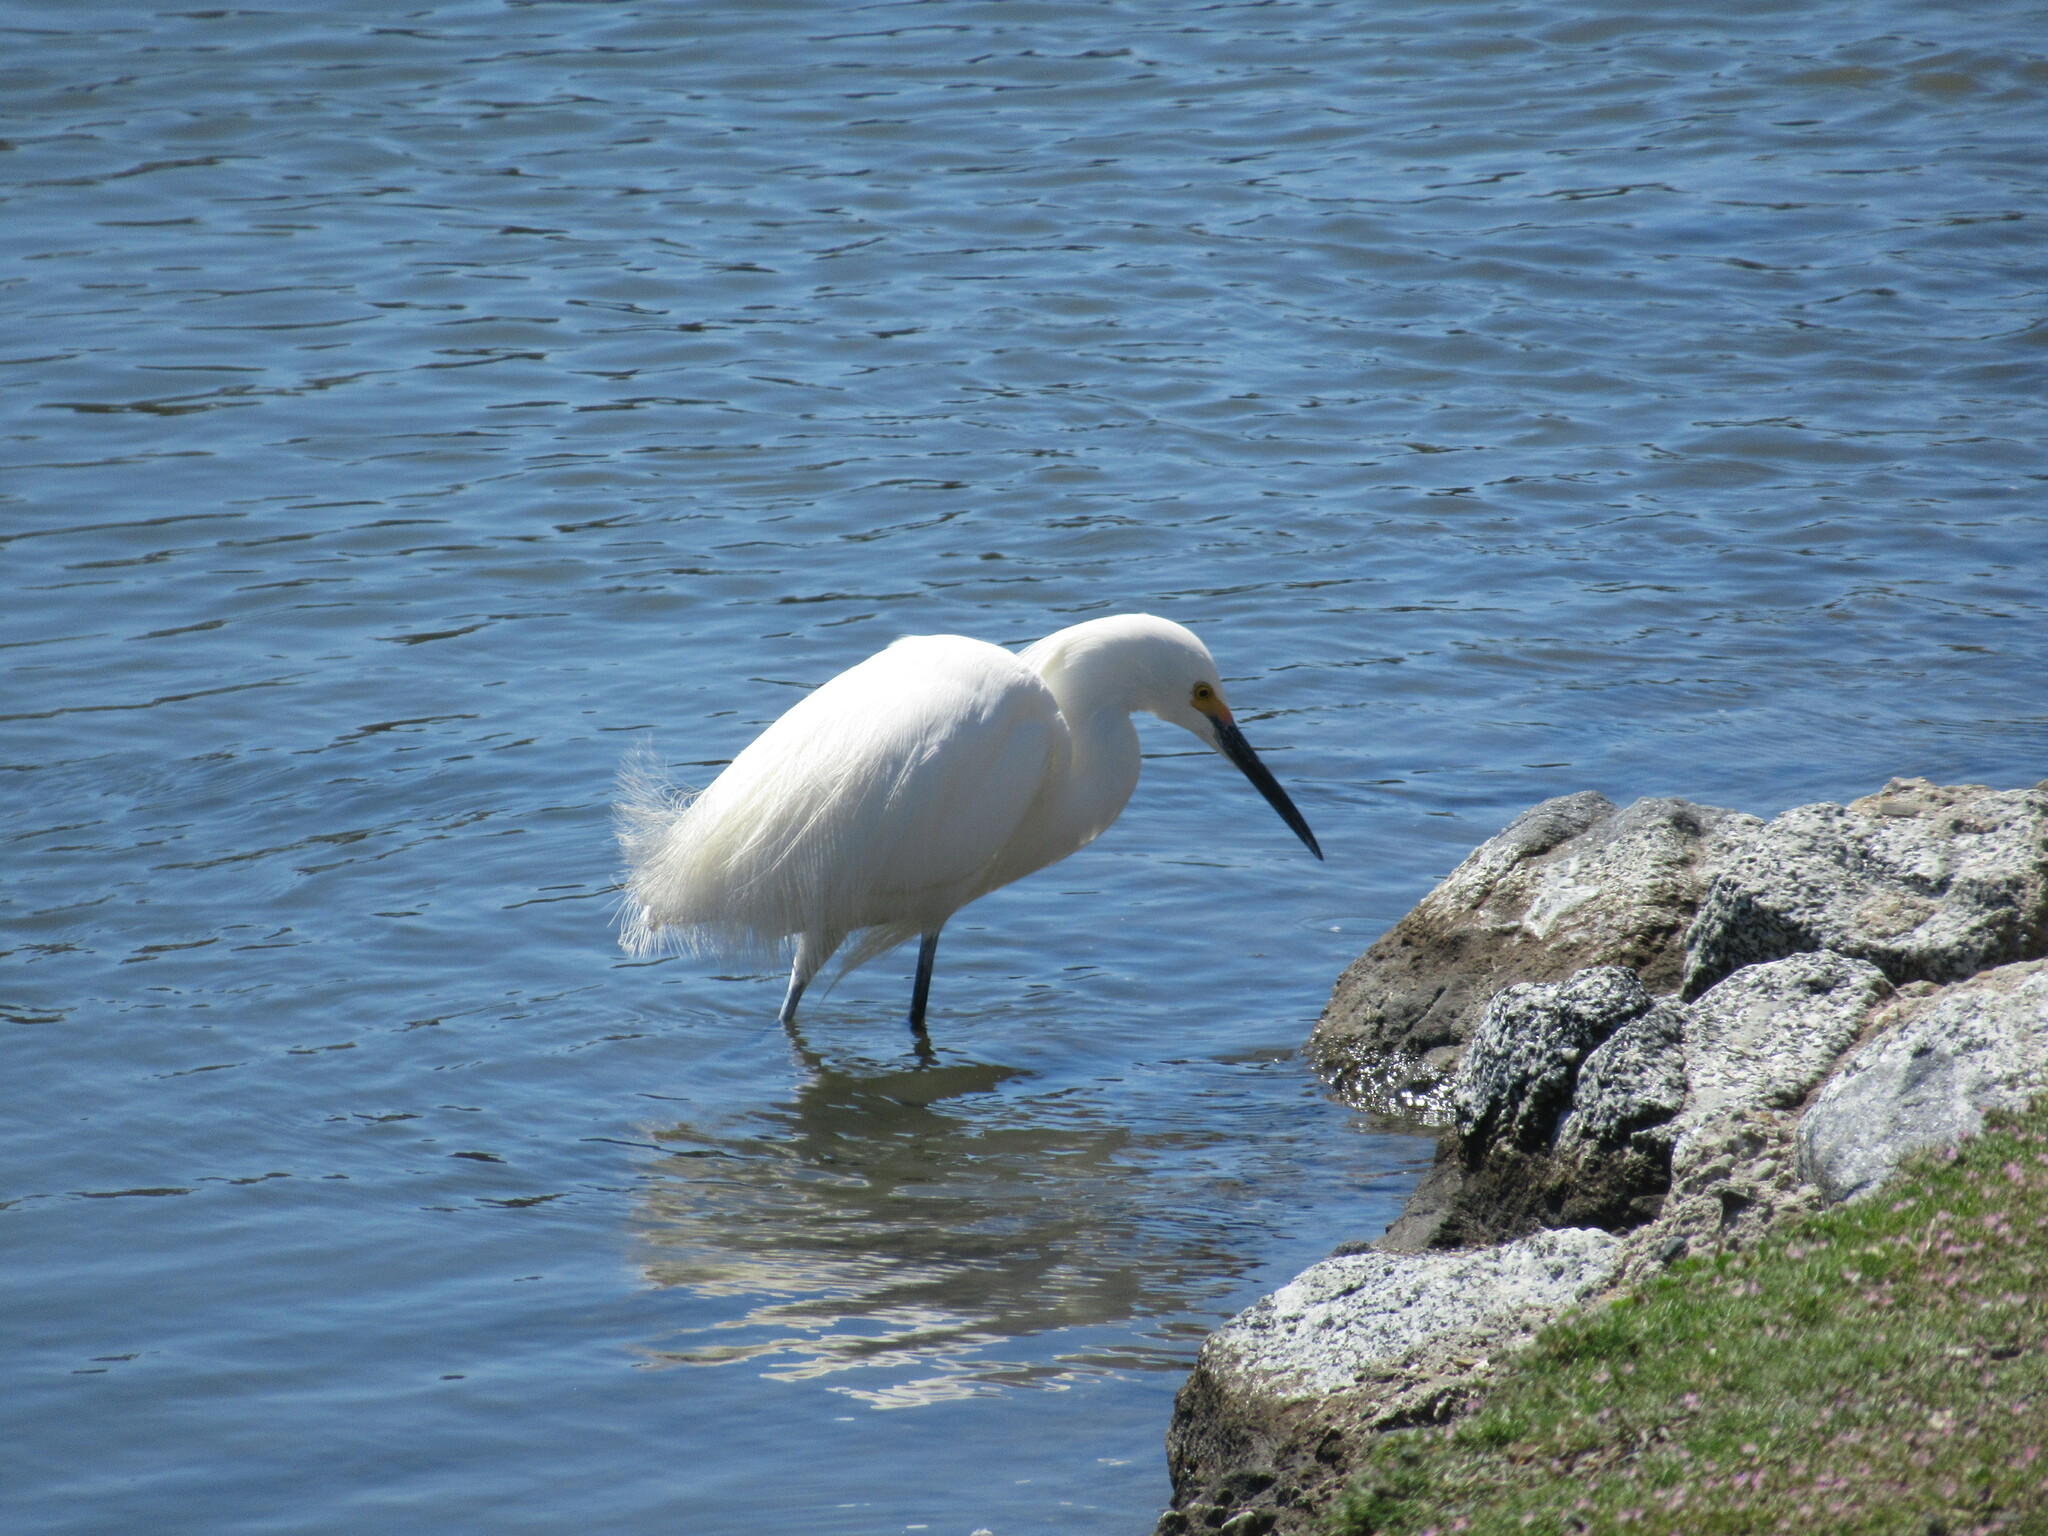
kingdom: Animalia
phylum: Chordata
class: Aves
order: Pelecaniformes
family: Ardeidae
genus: Egretta
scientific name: Egretta thula
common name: Snowy egret
